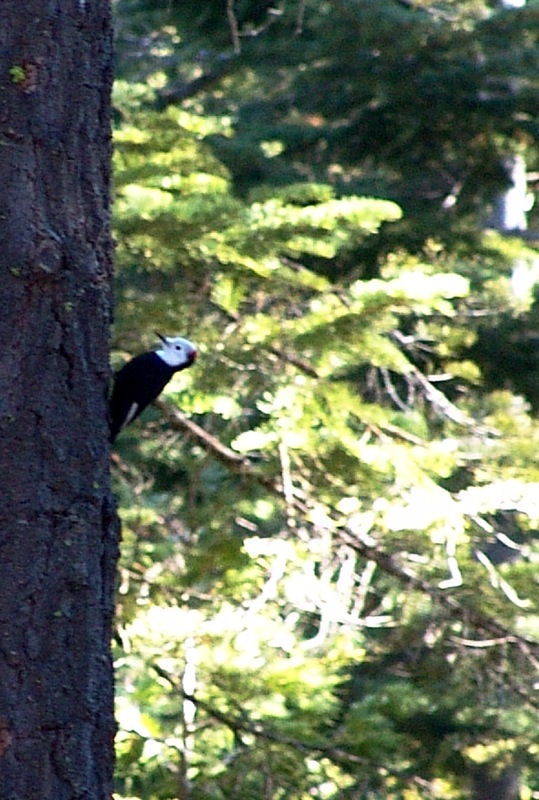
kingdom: Animalia
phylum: Chordata
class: Aves
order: Piciformes
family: Picidae
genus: Leuconotopicus
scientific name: Leuconotopicus albolarvatus
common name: White-headed woodpecker
